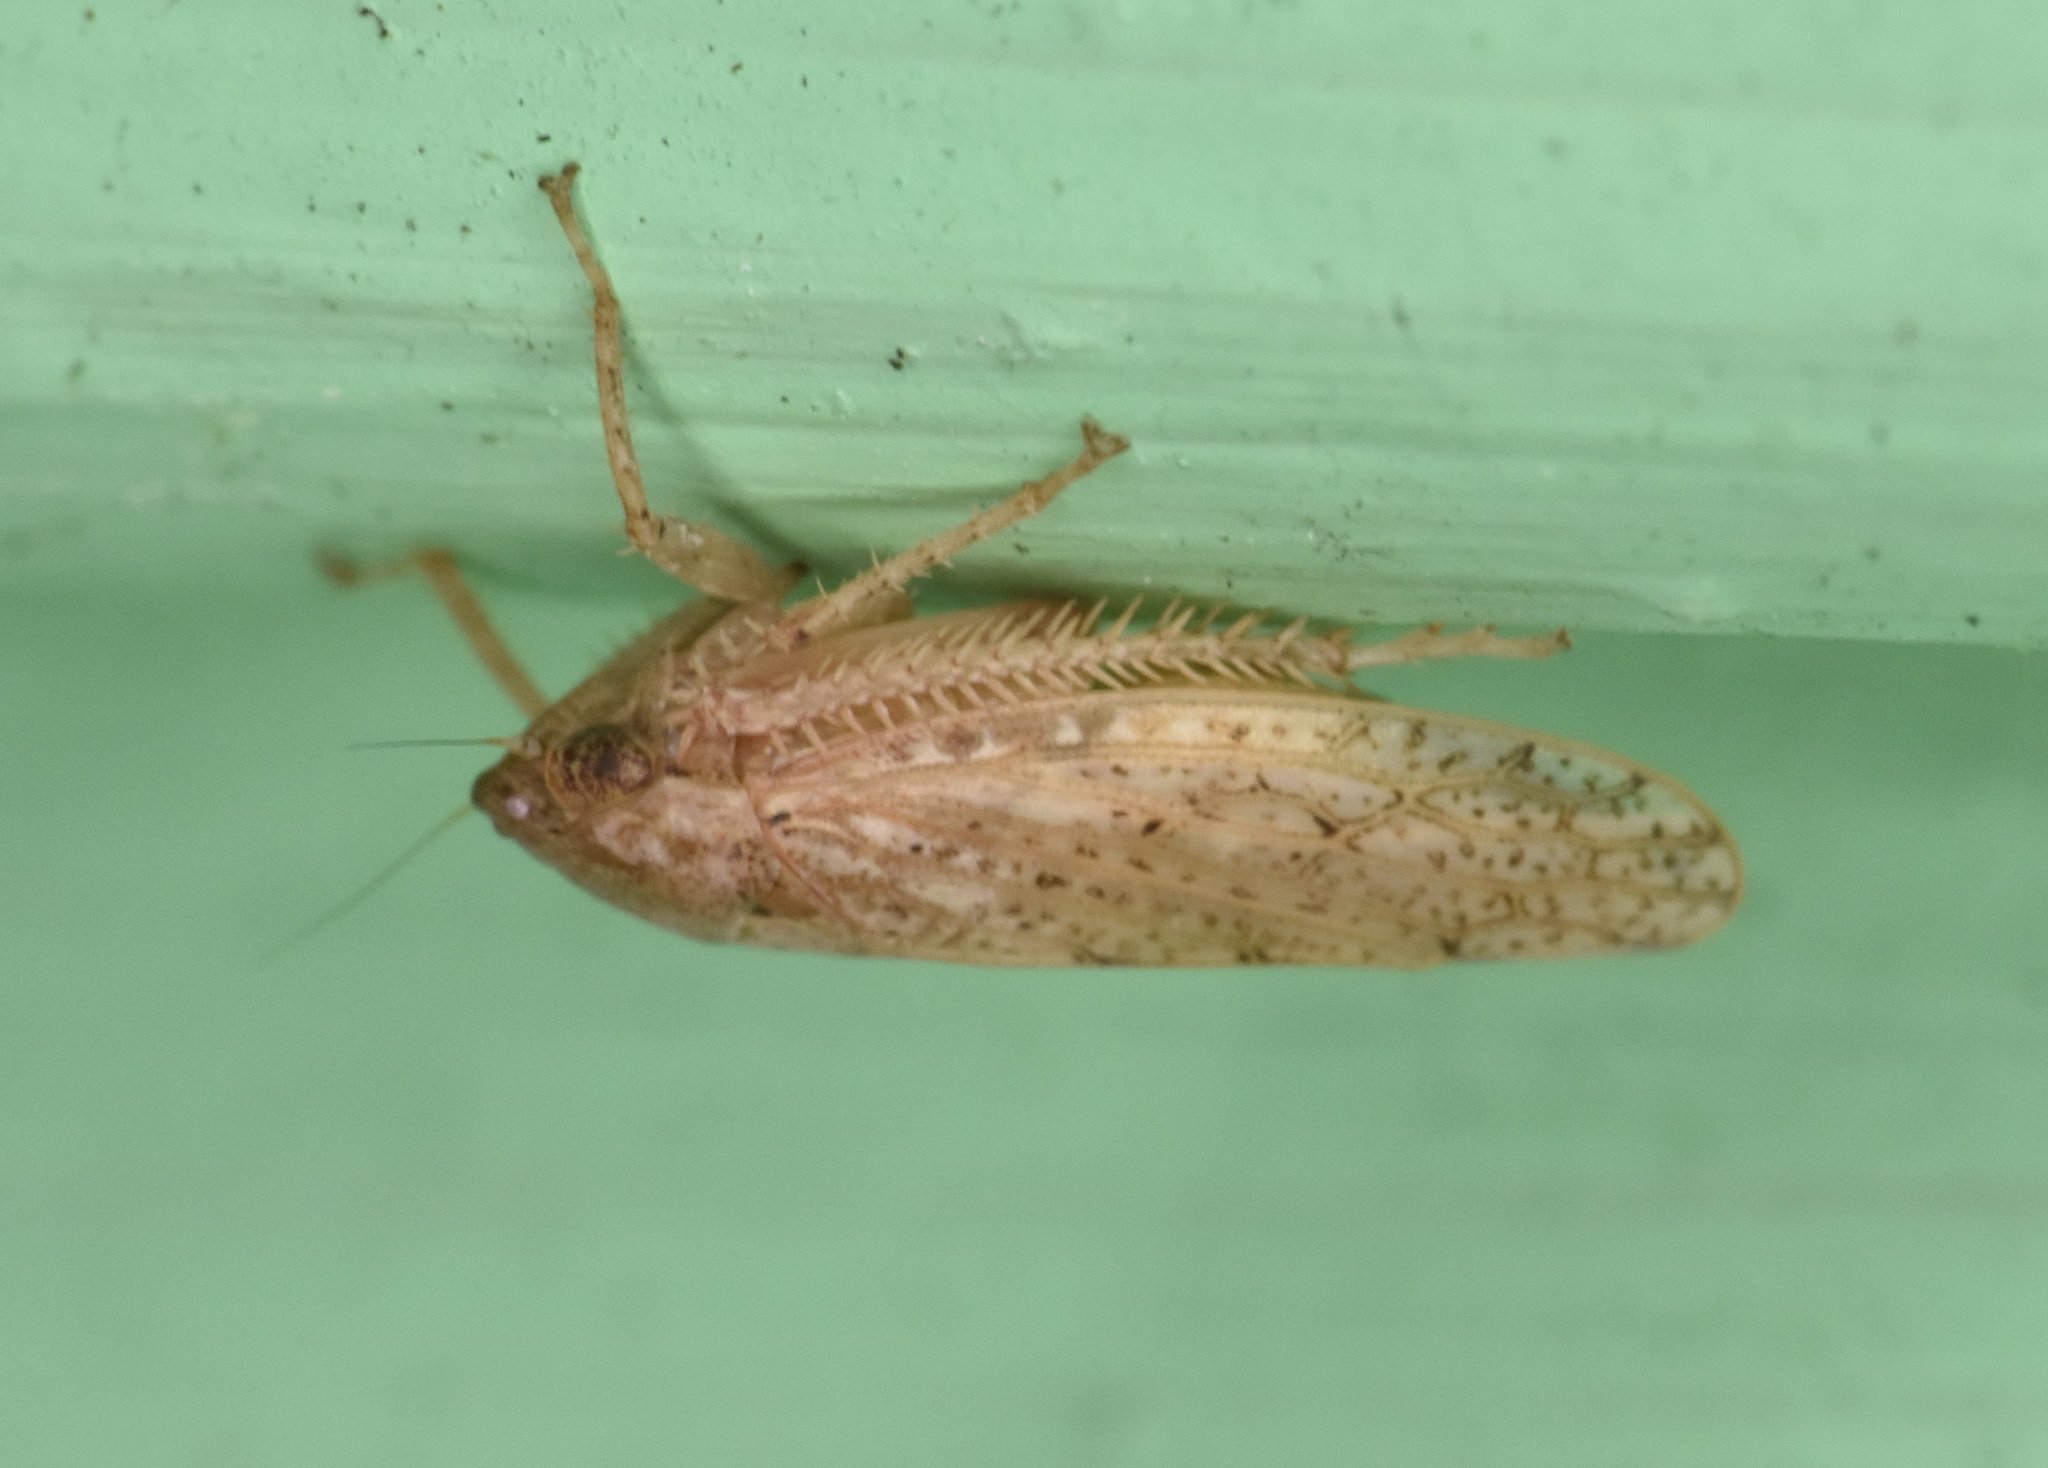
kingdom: Animalia
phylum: Arthropoda
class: Insecta
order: Hemiptera
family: Cicadellidae
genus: Curtara
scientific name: Curtara insularis
